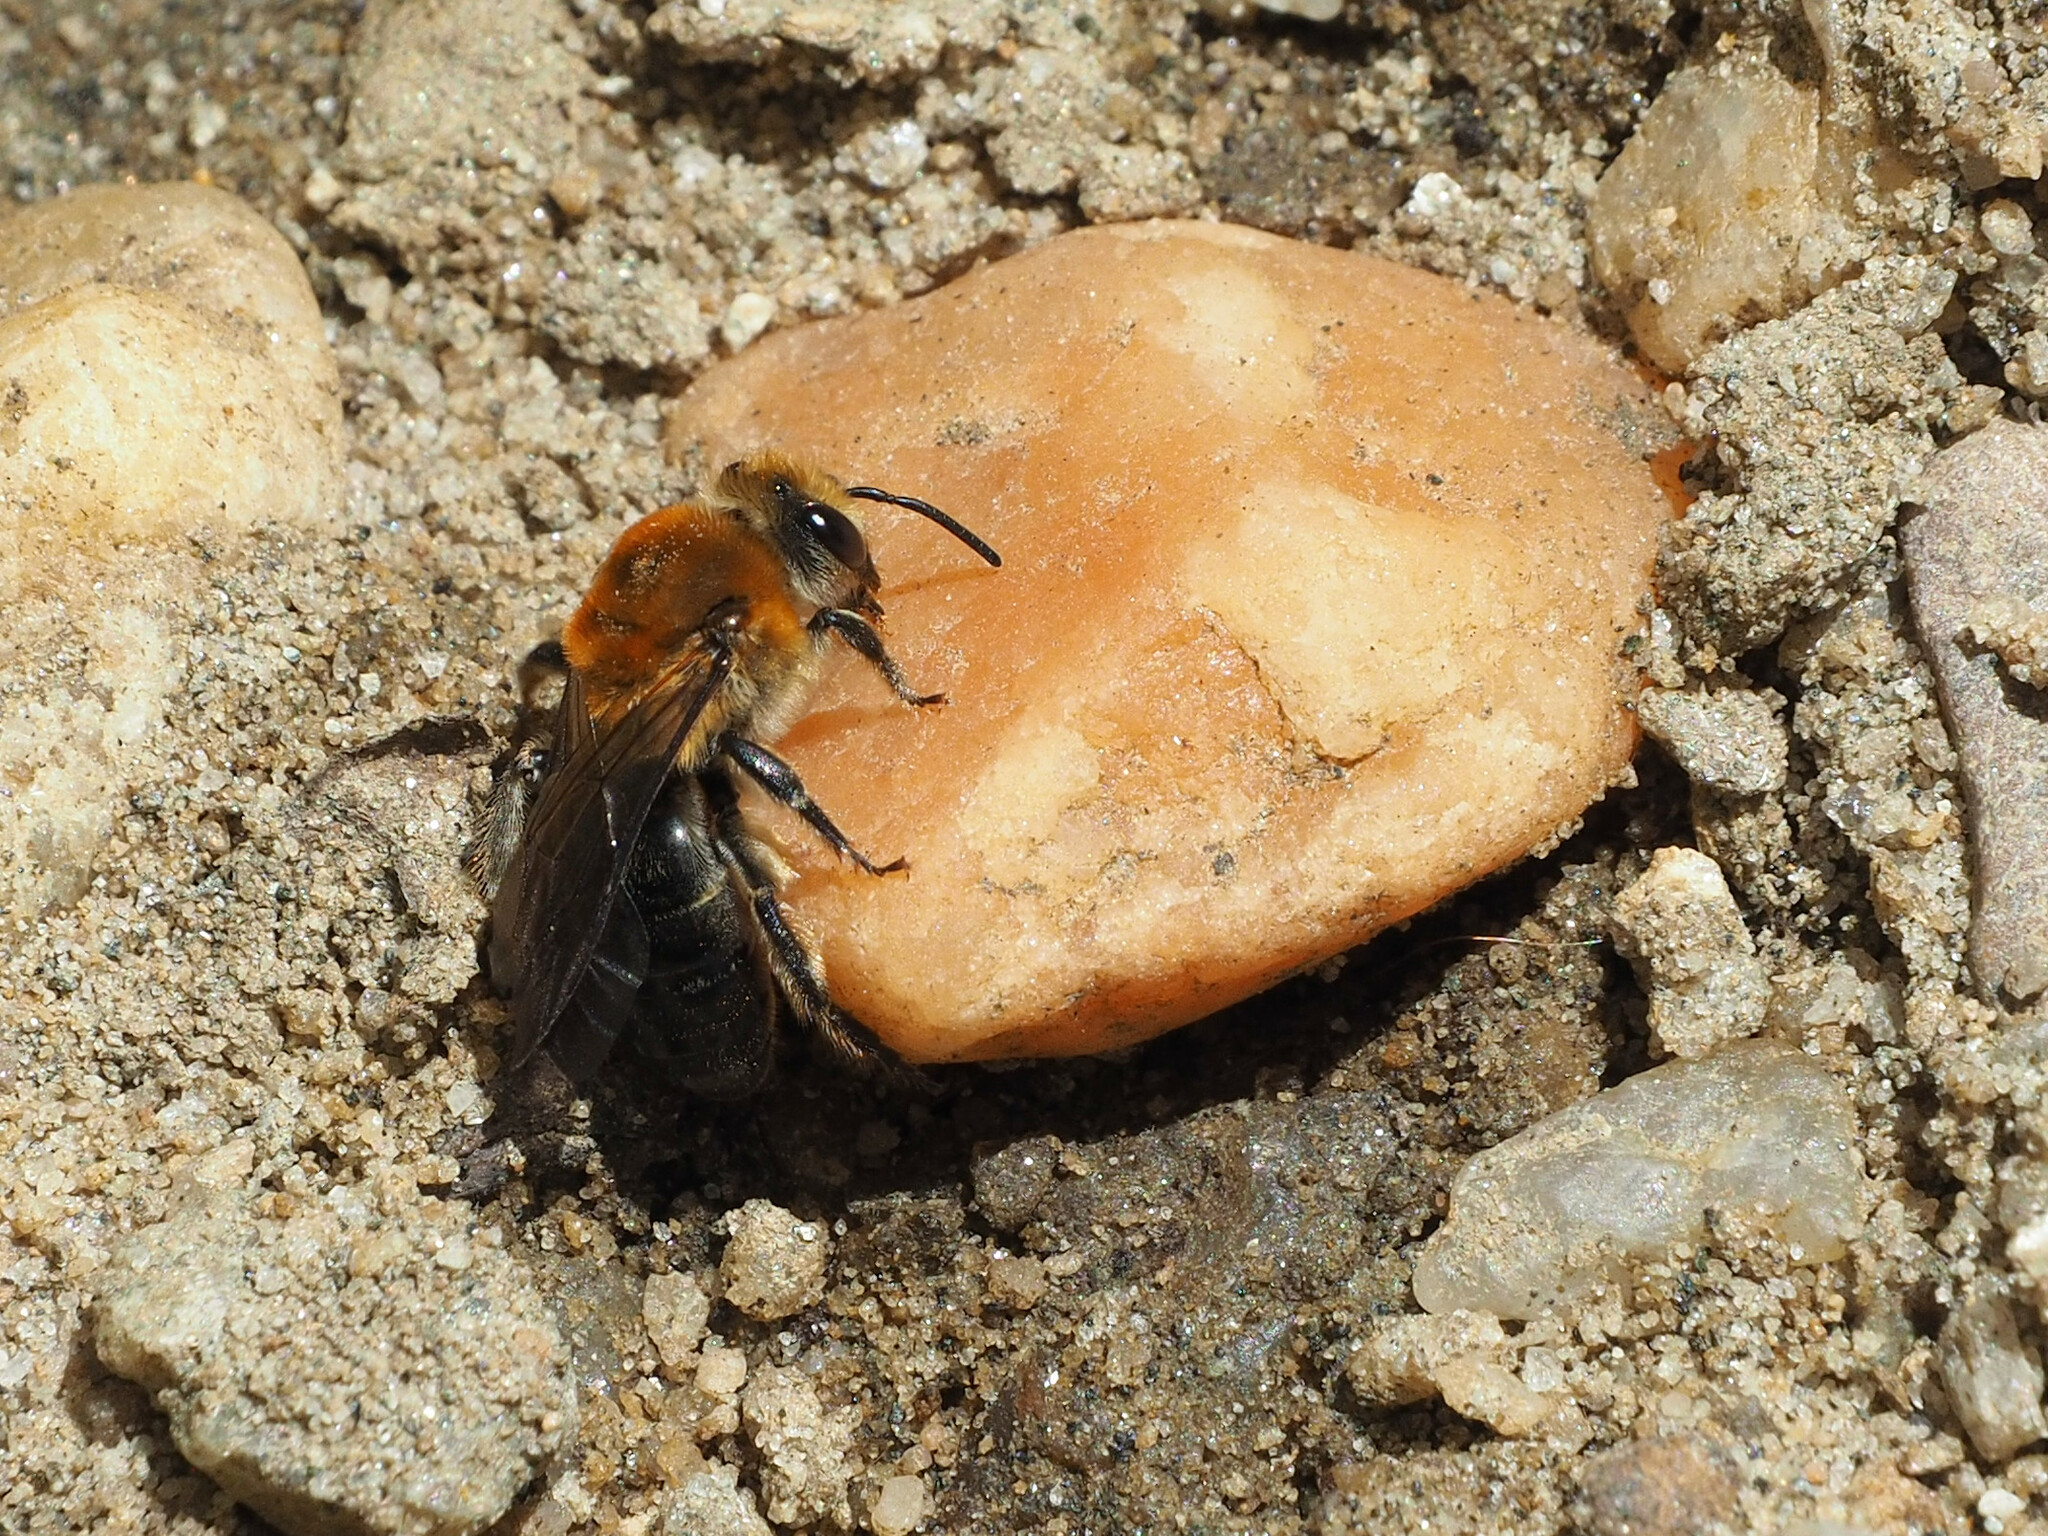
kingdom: Animalia
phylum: Arthropoda
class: Insecta
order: Hymenoptera
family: Colletidae
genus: Colletes
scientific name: Colletes thoracicus
